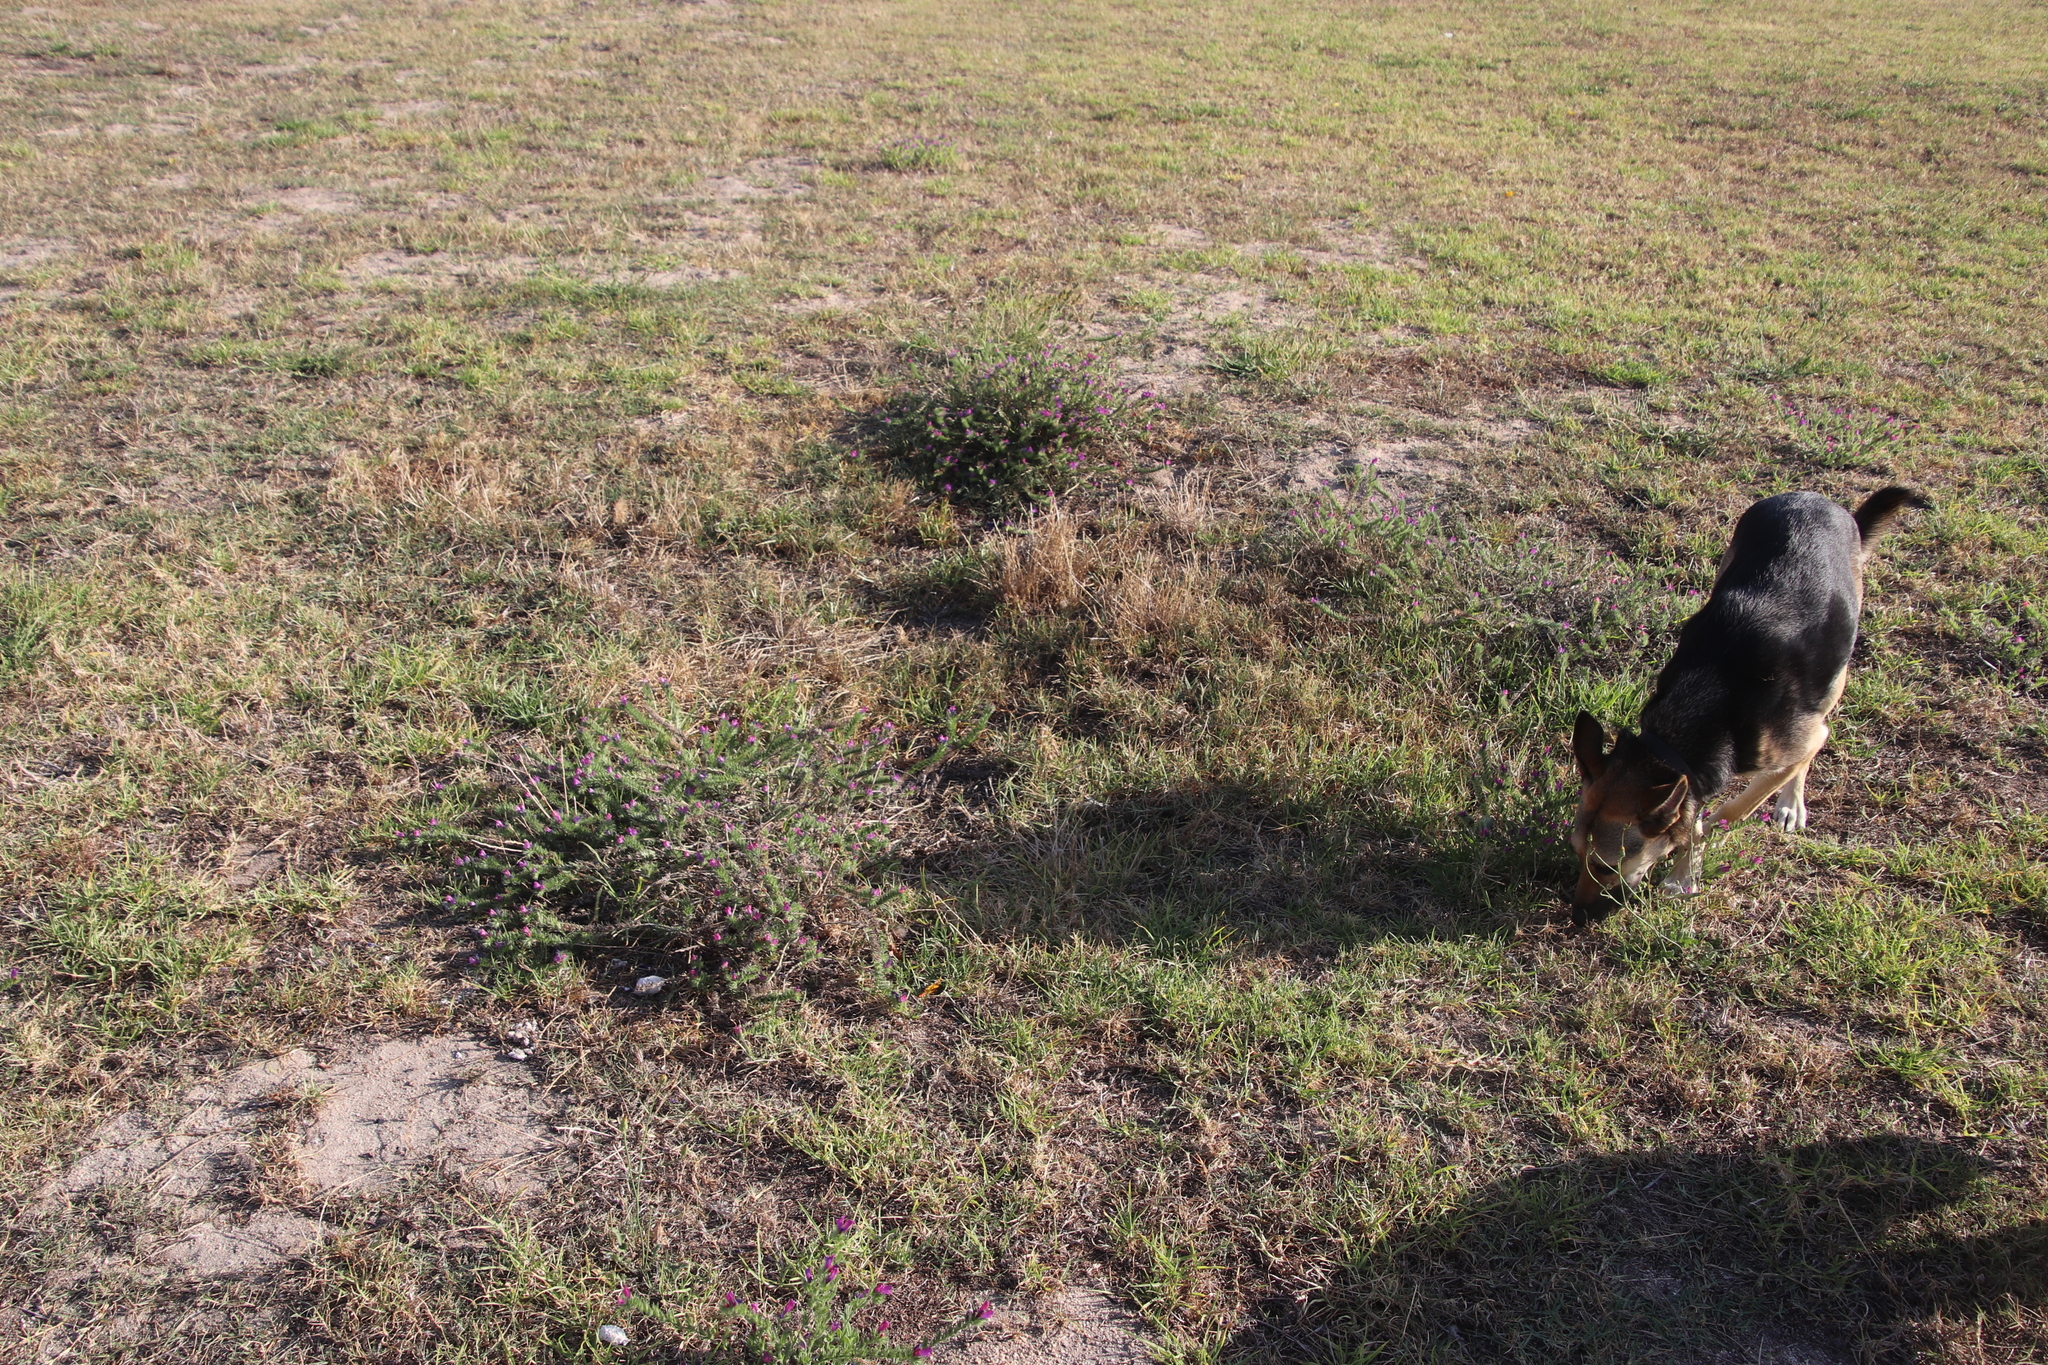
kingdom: Plantae
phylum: Tracheophyta
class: Magnoliopsida
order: Boraginales
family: Boraginaceae
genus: Echium
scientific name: Echium plantagineum
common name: Purple viper's-bugloss
